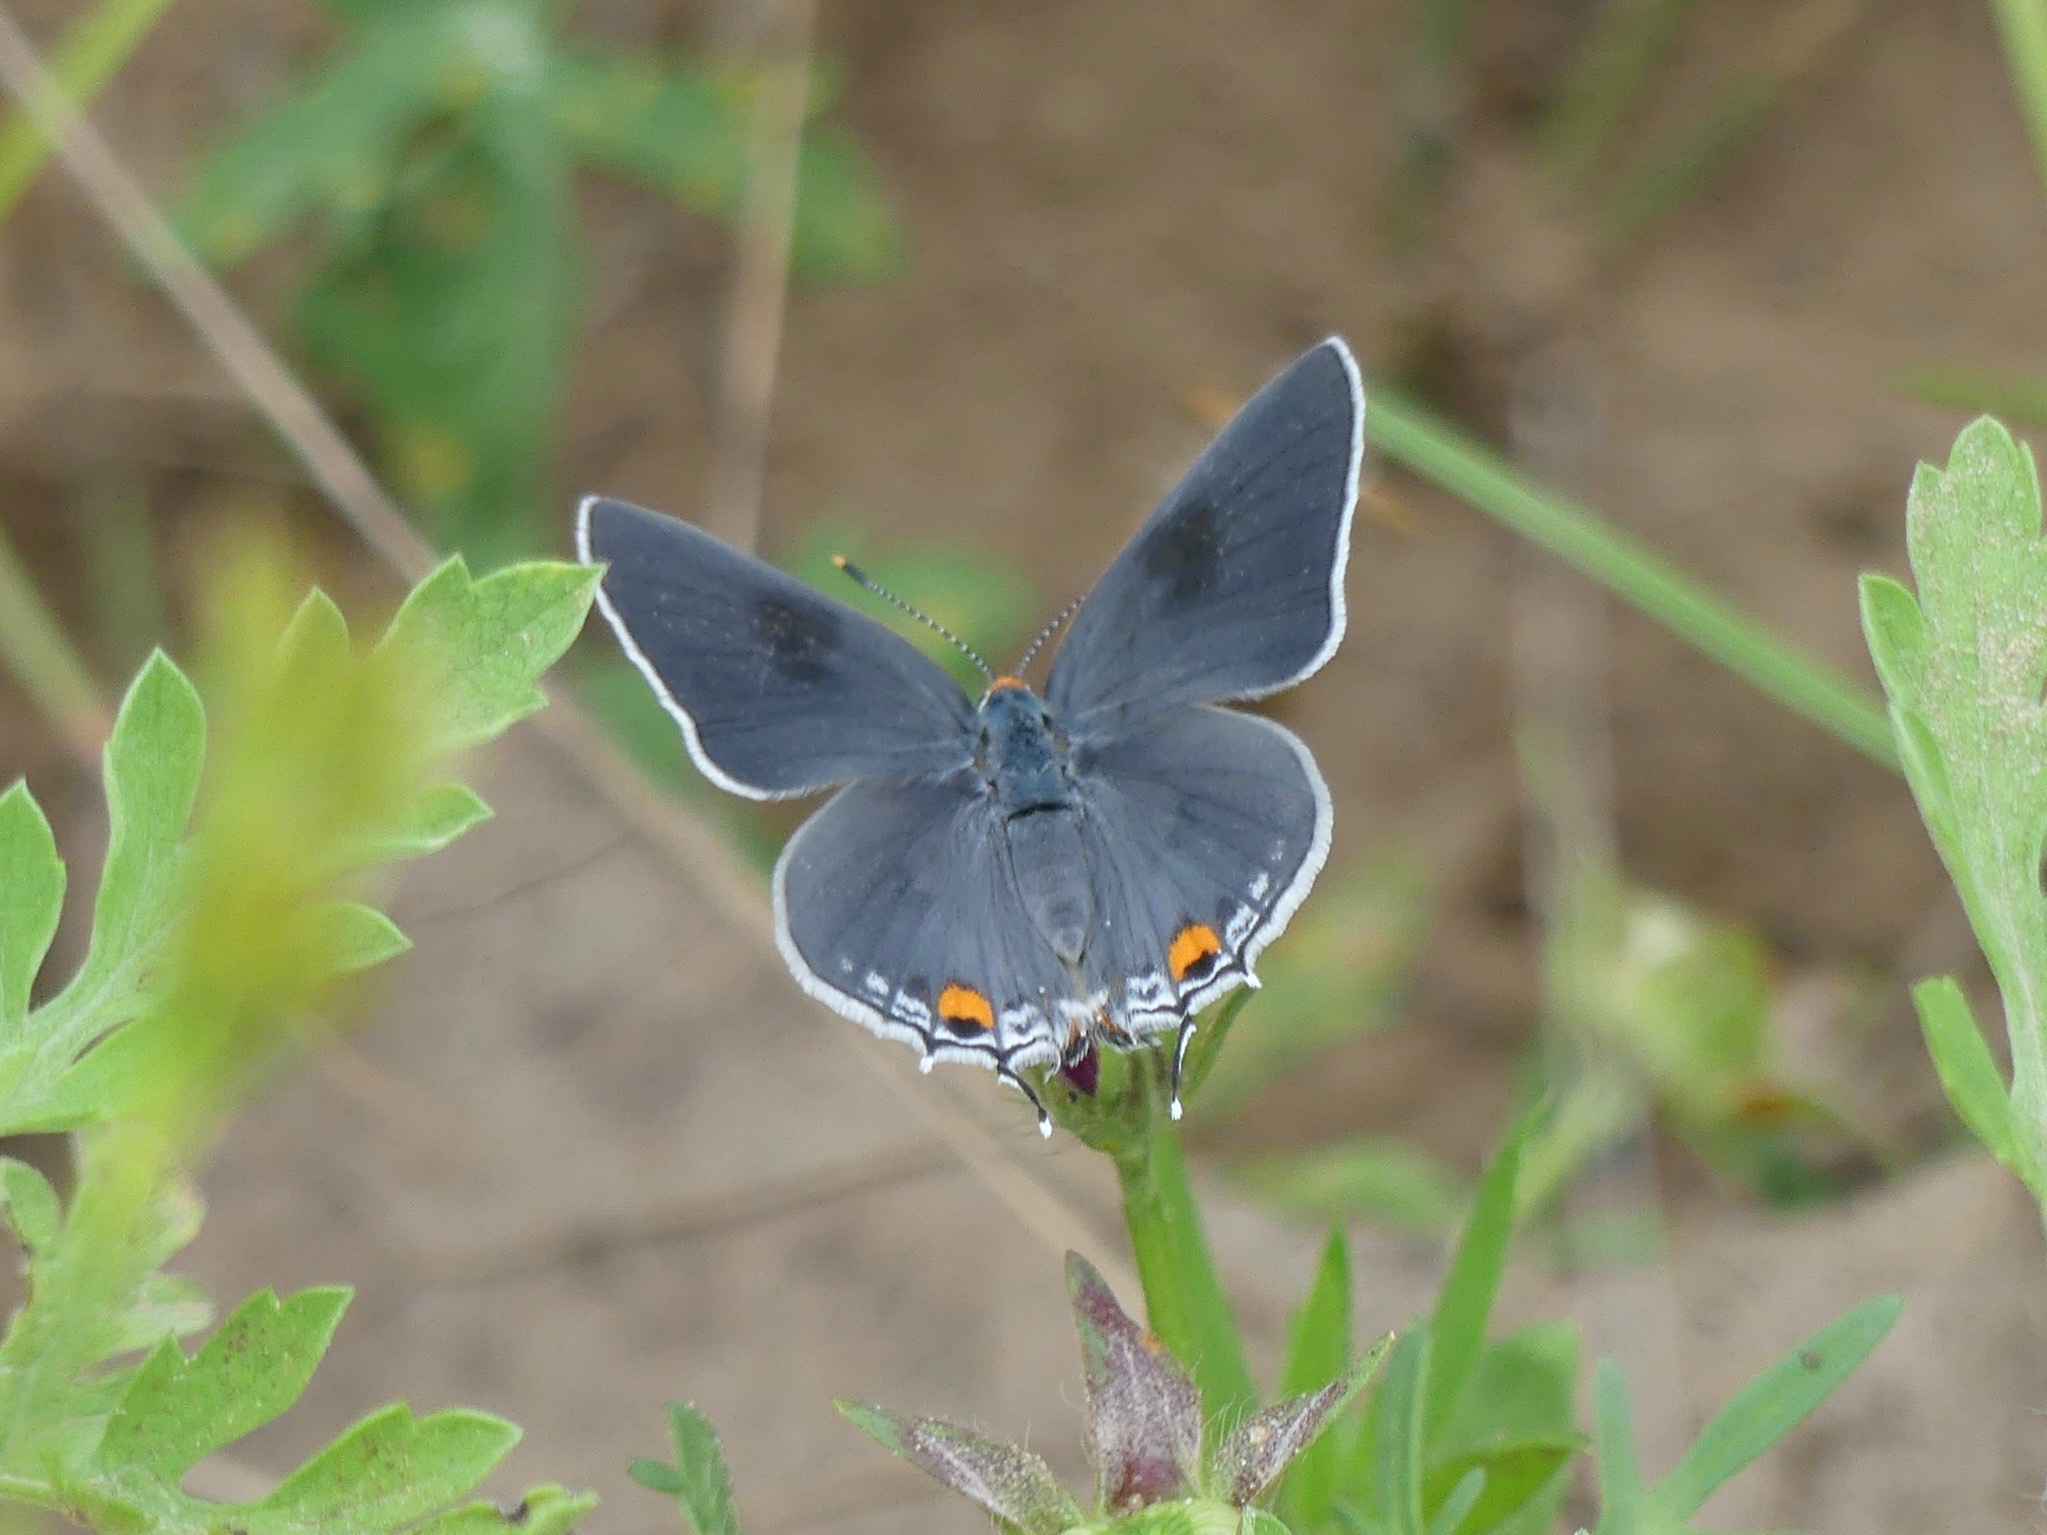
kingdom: Animalia
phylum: Arthropoda
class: Insecta
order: Lepidoptera
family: Lycaenidae
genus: Strymon
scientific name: Strymon melinus
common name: Gray hairstreak
